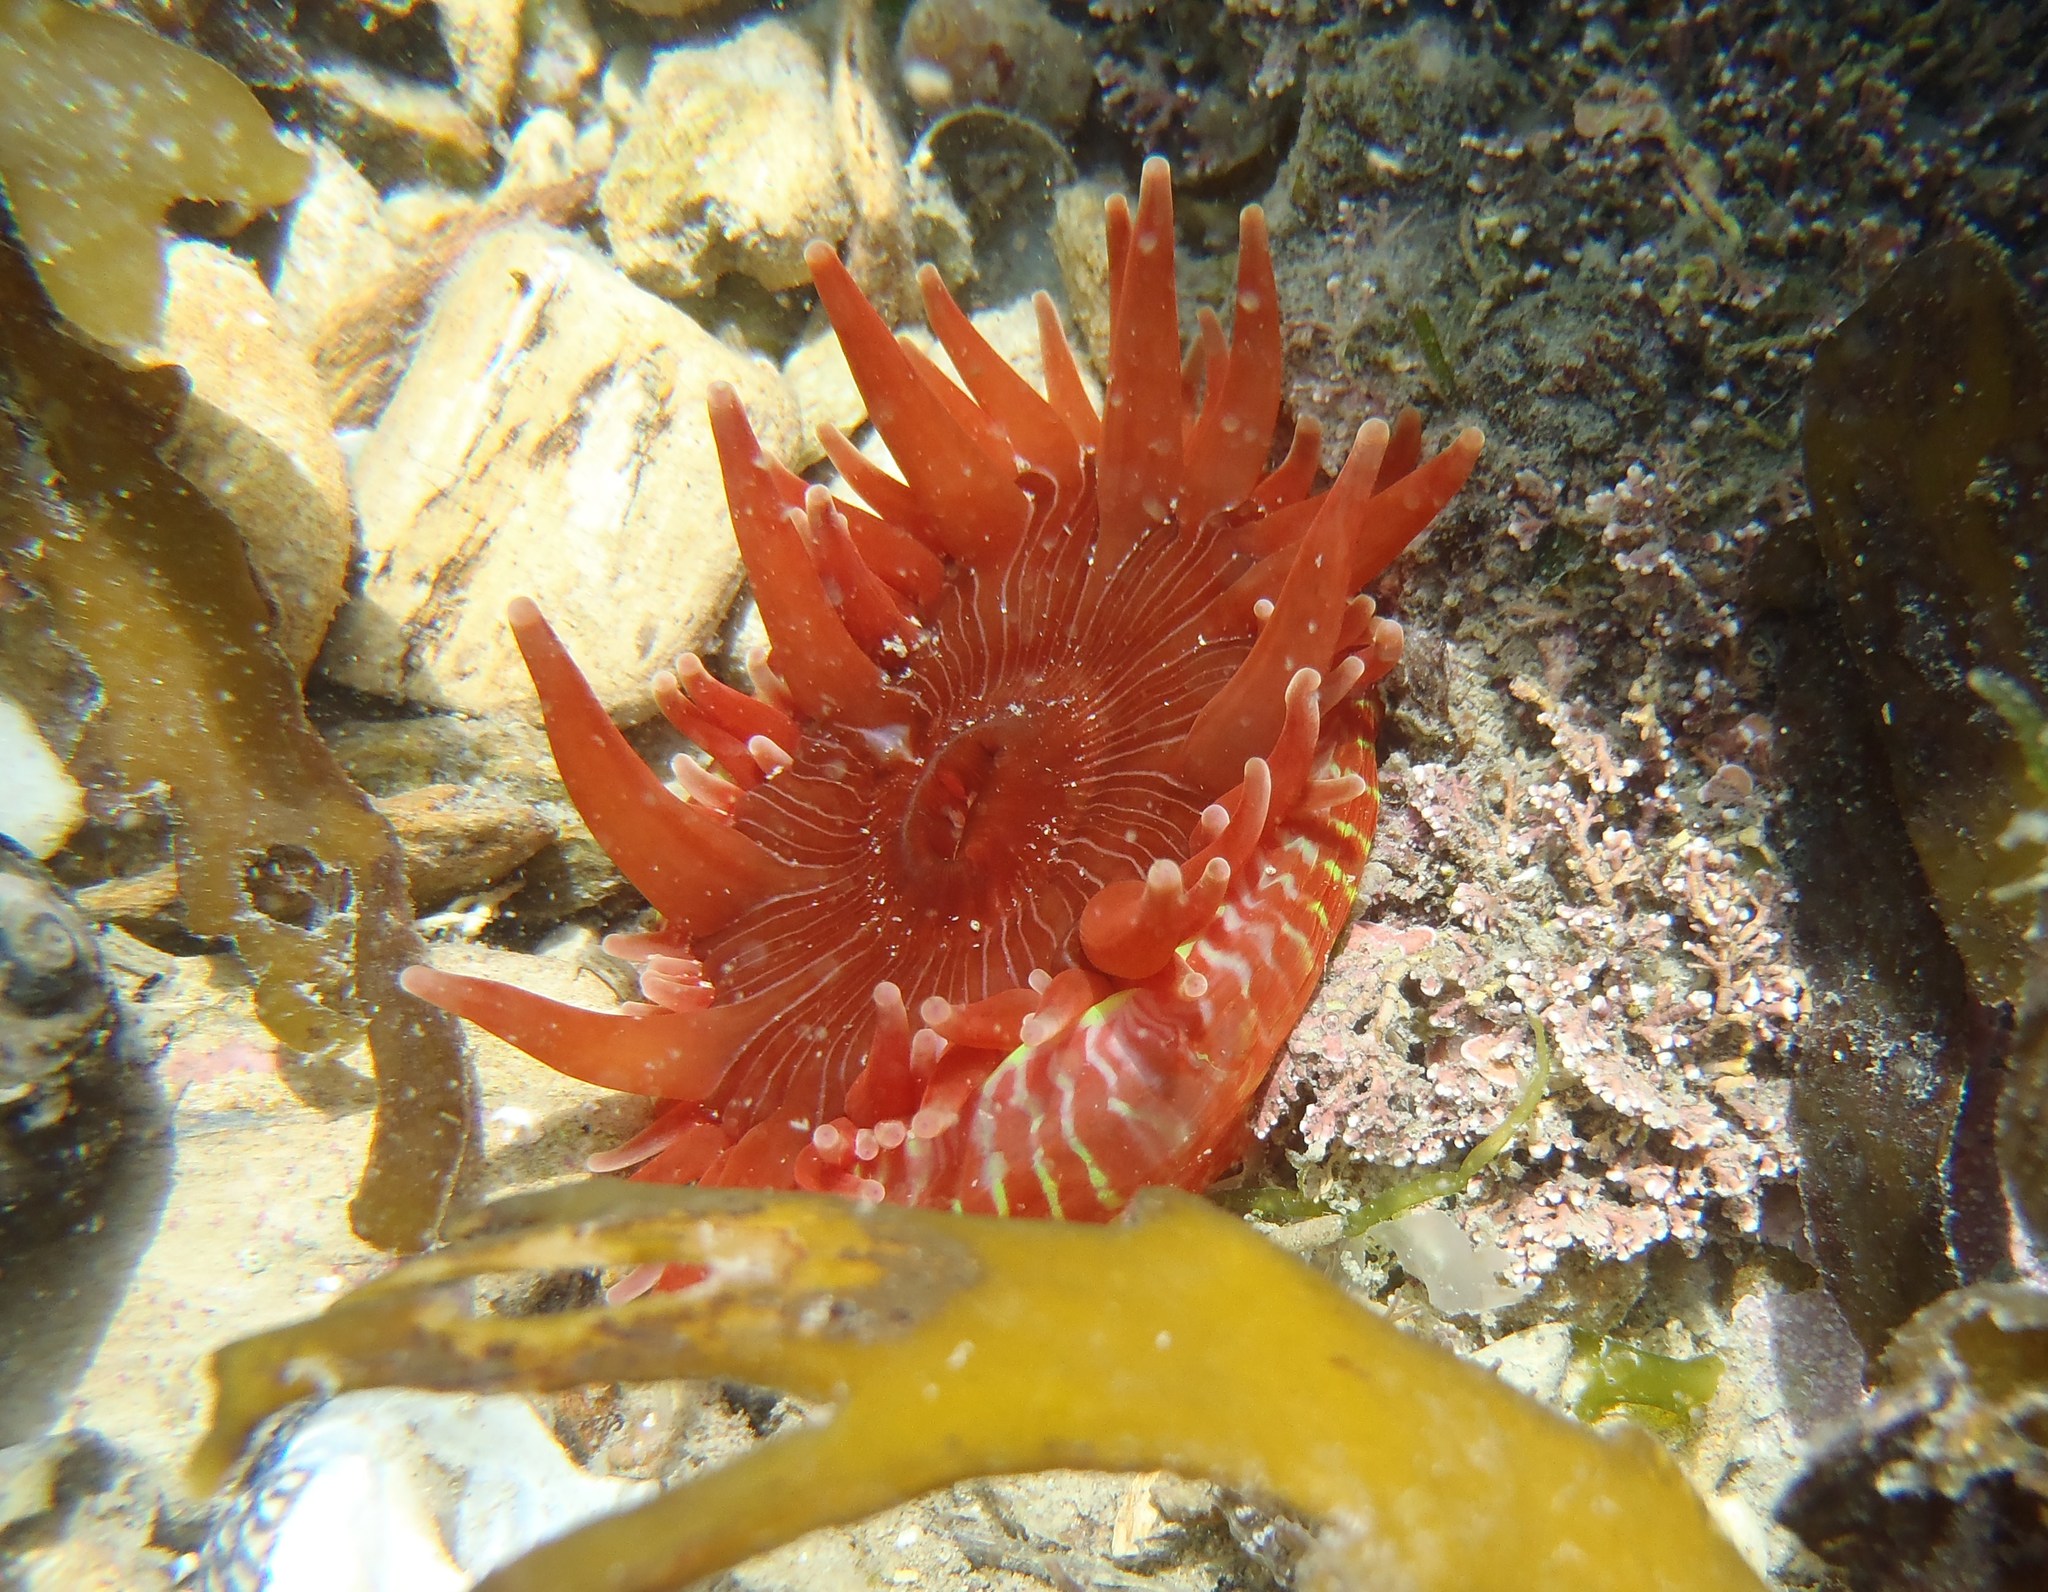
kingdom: Animalia
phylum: Cnidaria
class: Anthozoa
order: Actiniaria
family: Actiniidae
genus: Epiactis
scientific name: Epiactis thompsoni
